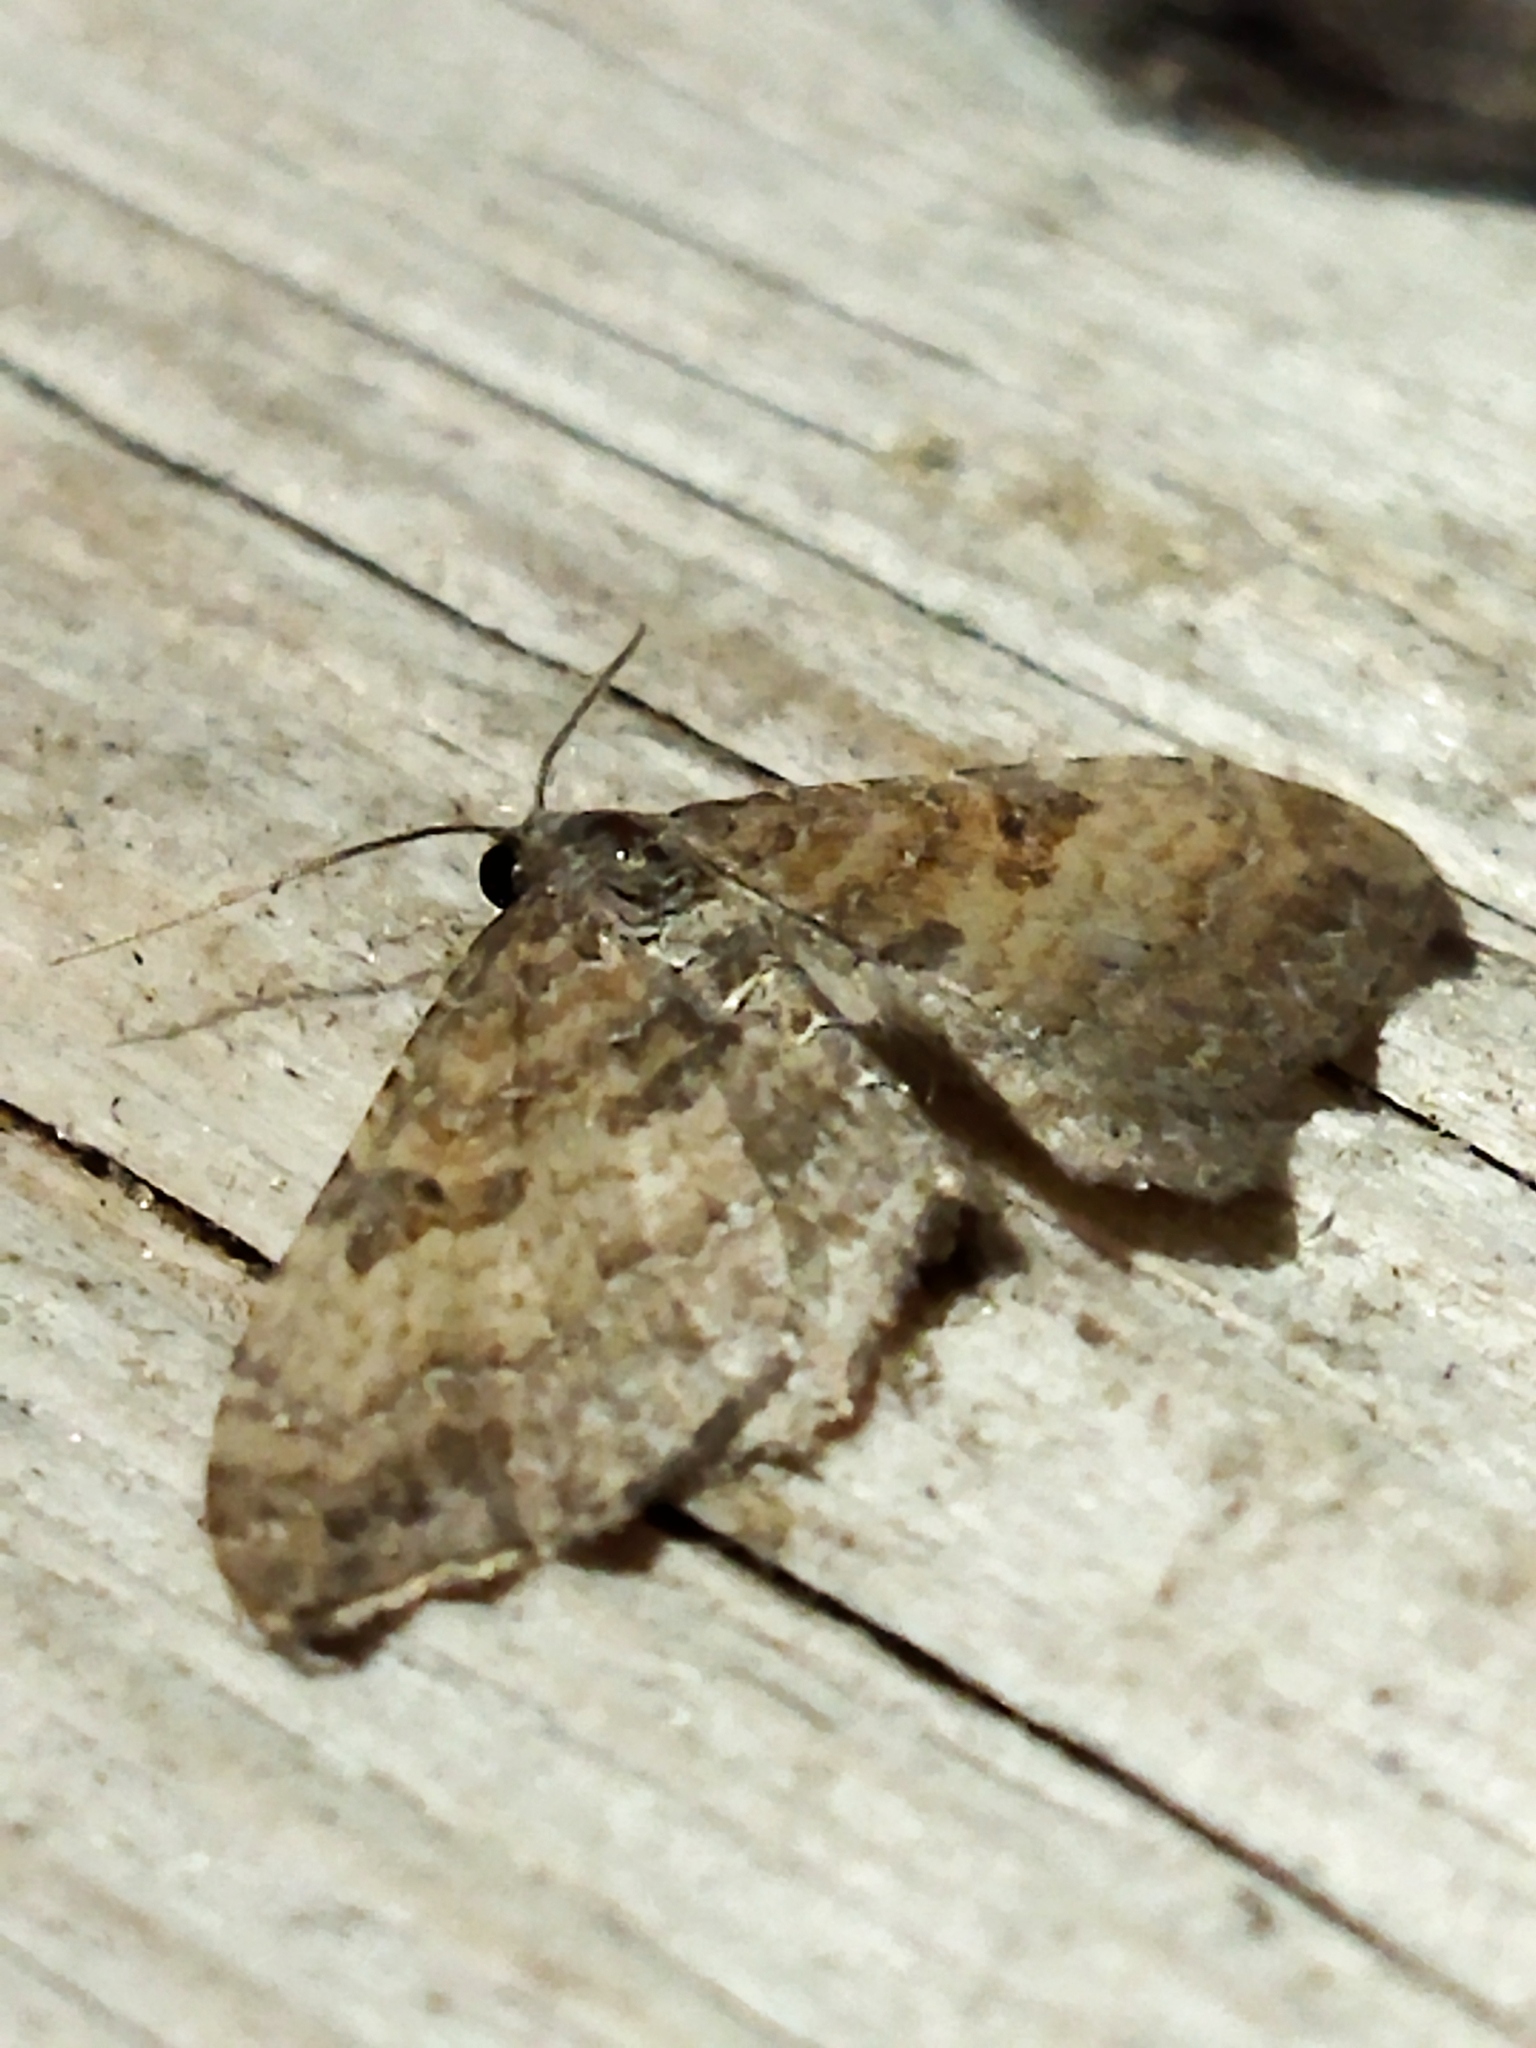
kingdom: Animalia
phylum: Arthropoda
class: Insecta
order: Lepidoptera
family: Geometridae
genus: Orthonama
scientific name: Orthonama obstipata
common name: The gem
